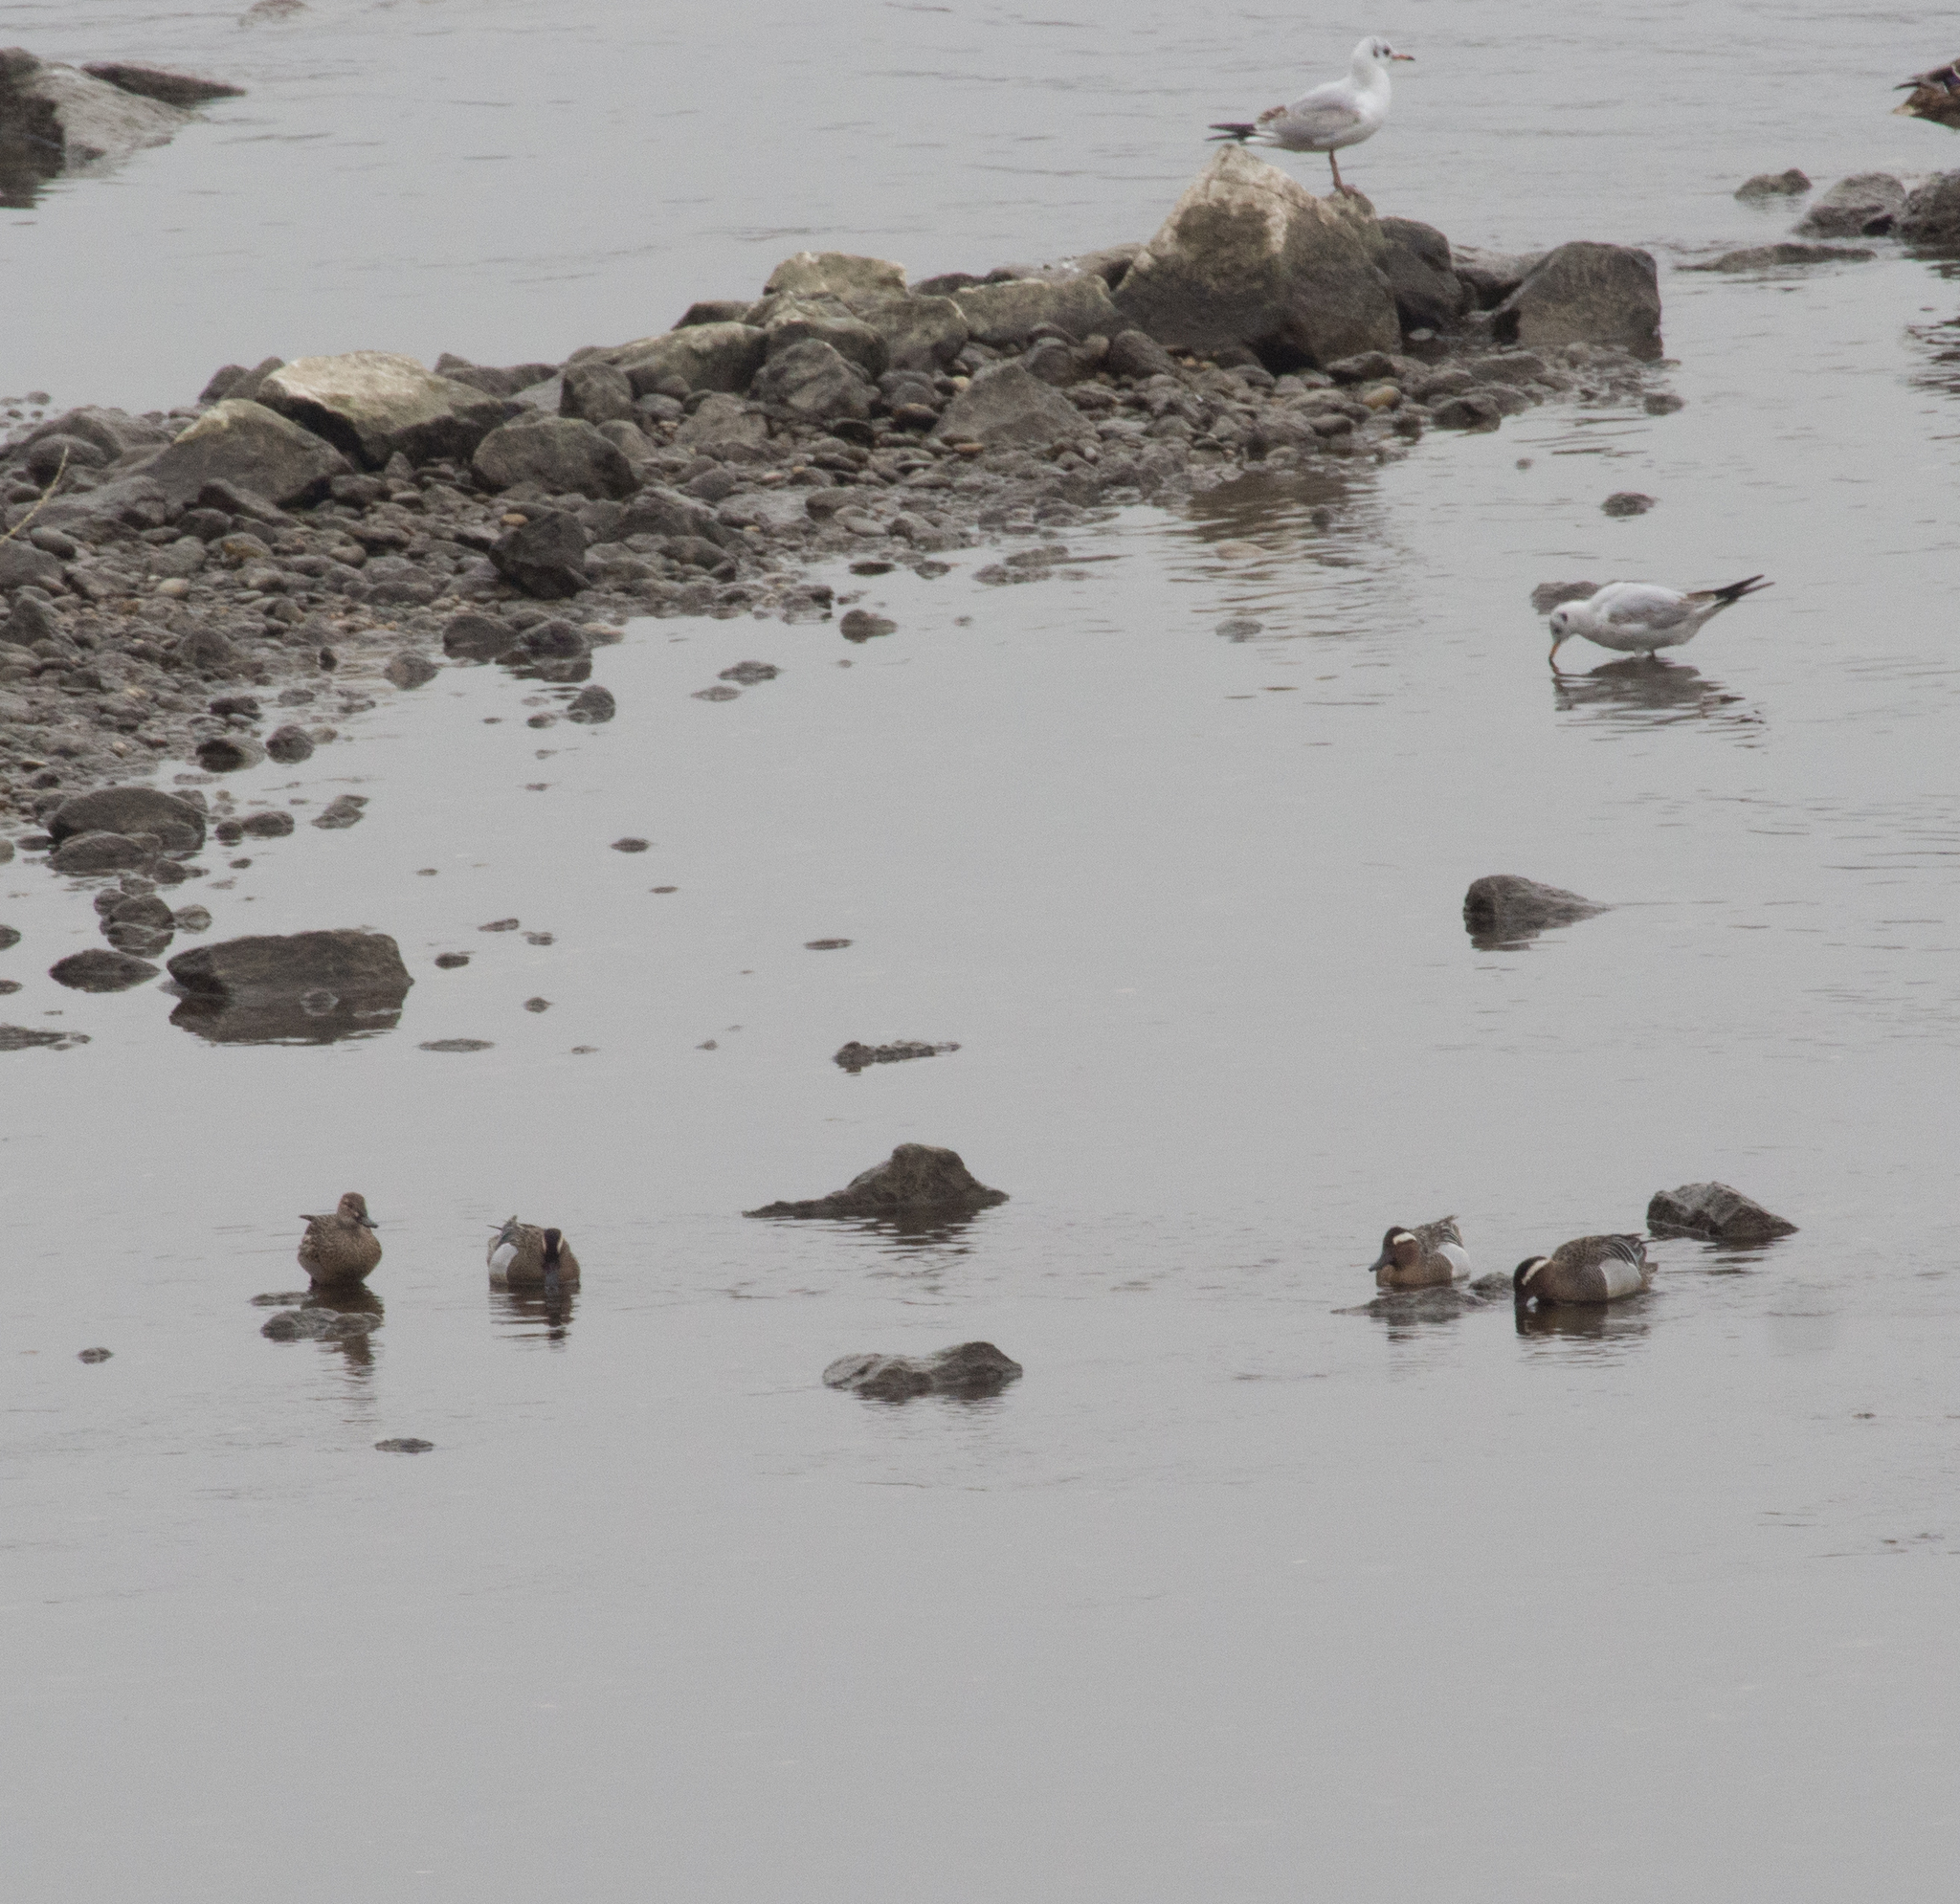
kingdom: Animalia
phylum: Chordata
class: Aves
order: Anseriformes
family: Anatidae
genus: Spatula
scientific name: Spatula querquedula
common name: Garganey
